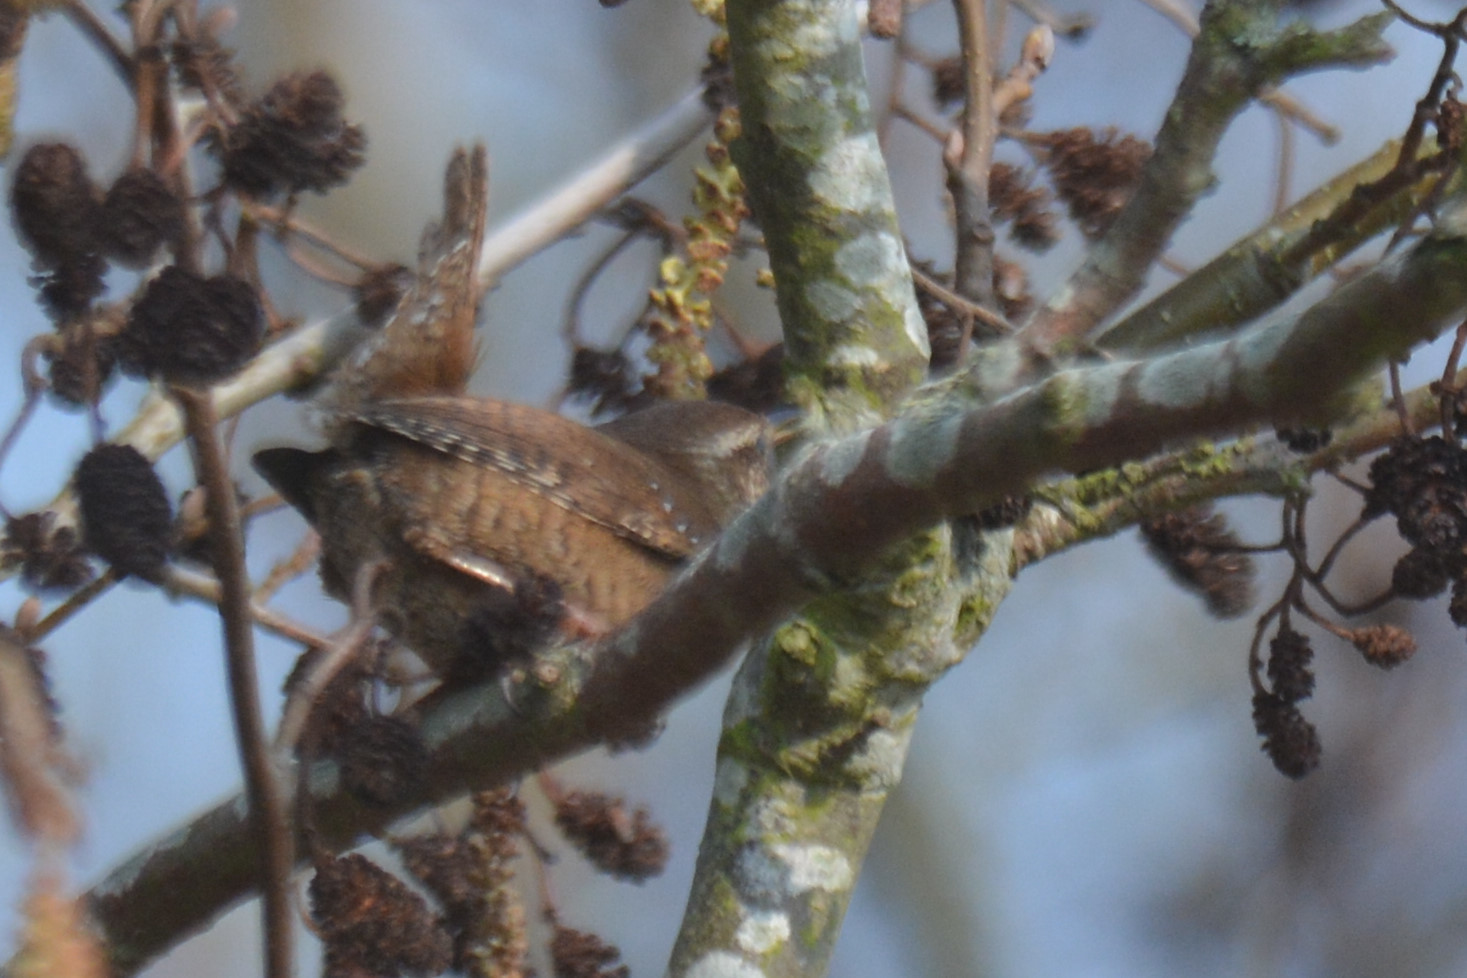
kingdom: Animalia
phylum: Chordata
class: Aves
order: Passeriformes
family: Troglodytidae
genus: Troglodytes
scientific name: Troglodytes troglodytes
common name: Eurasian wren
